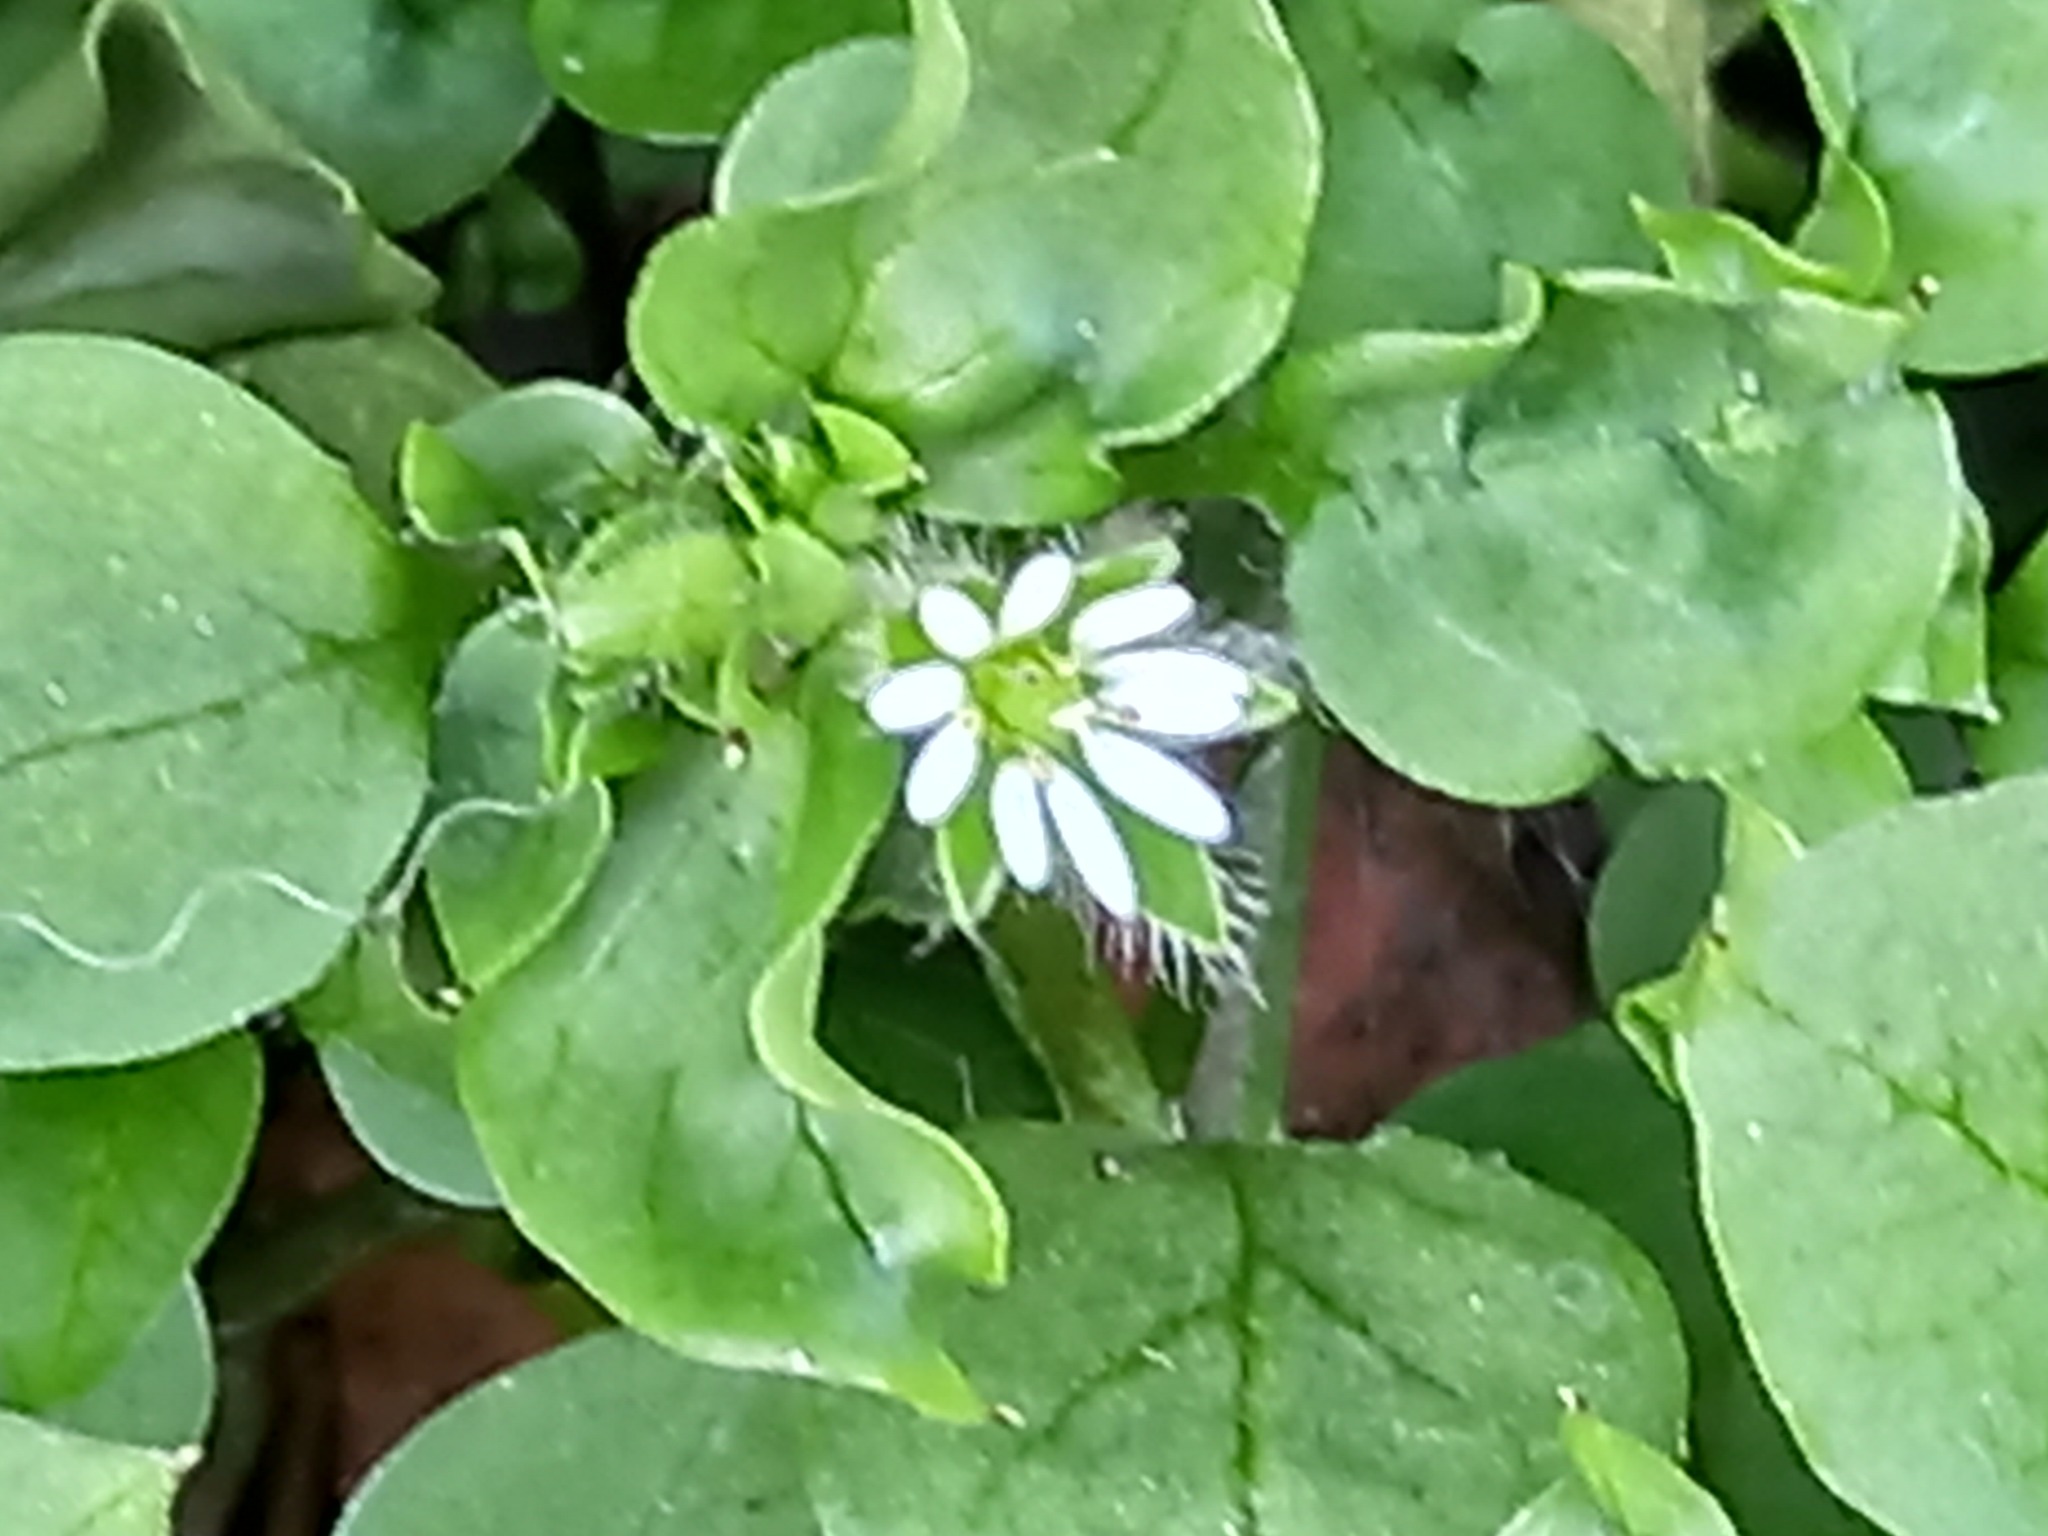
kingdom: Plantae
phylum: Tracheophyta
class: Magnoliopsida
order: Caryophyllales
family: Caryophyllaceae
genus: Stellaria
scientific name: Stellaria media
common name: Common chickweed
